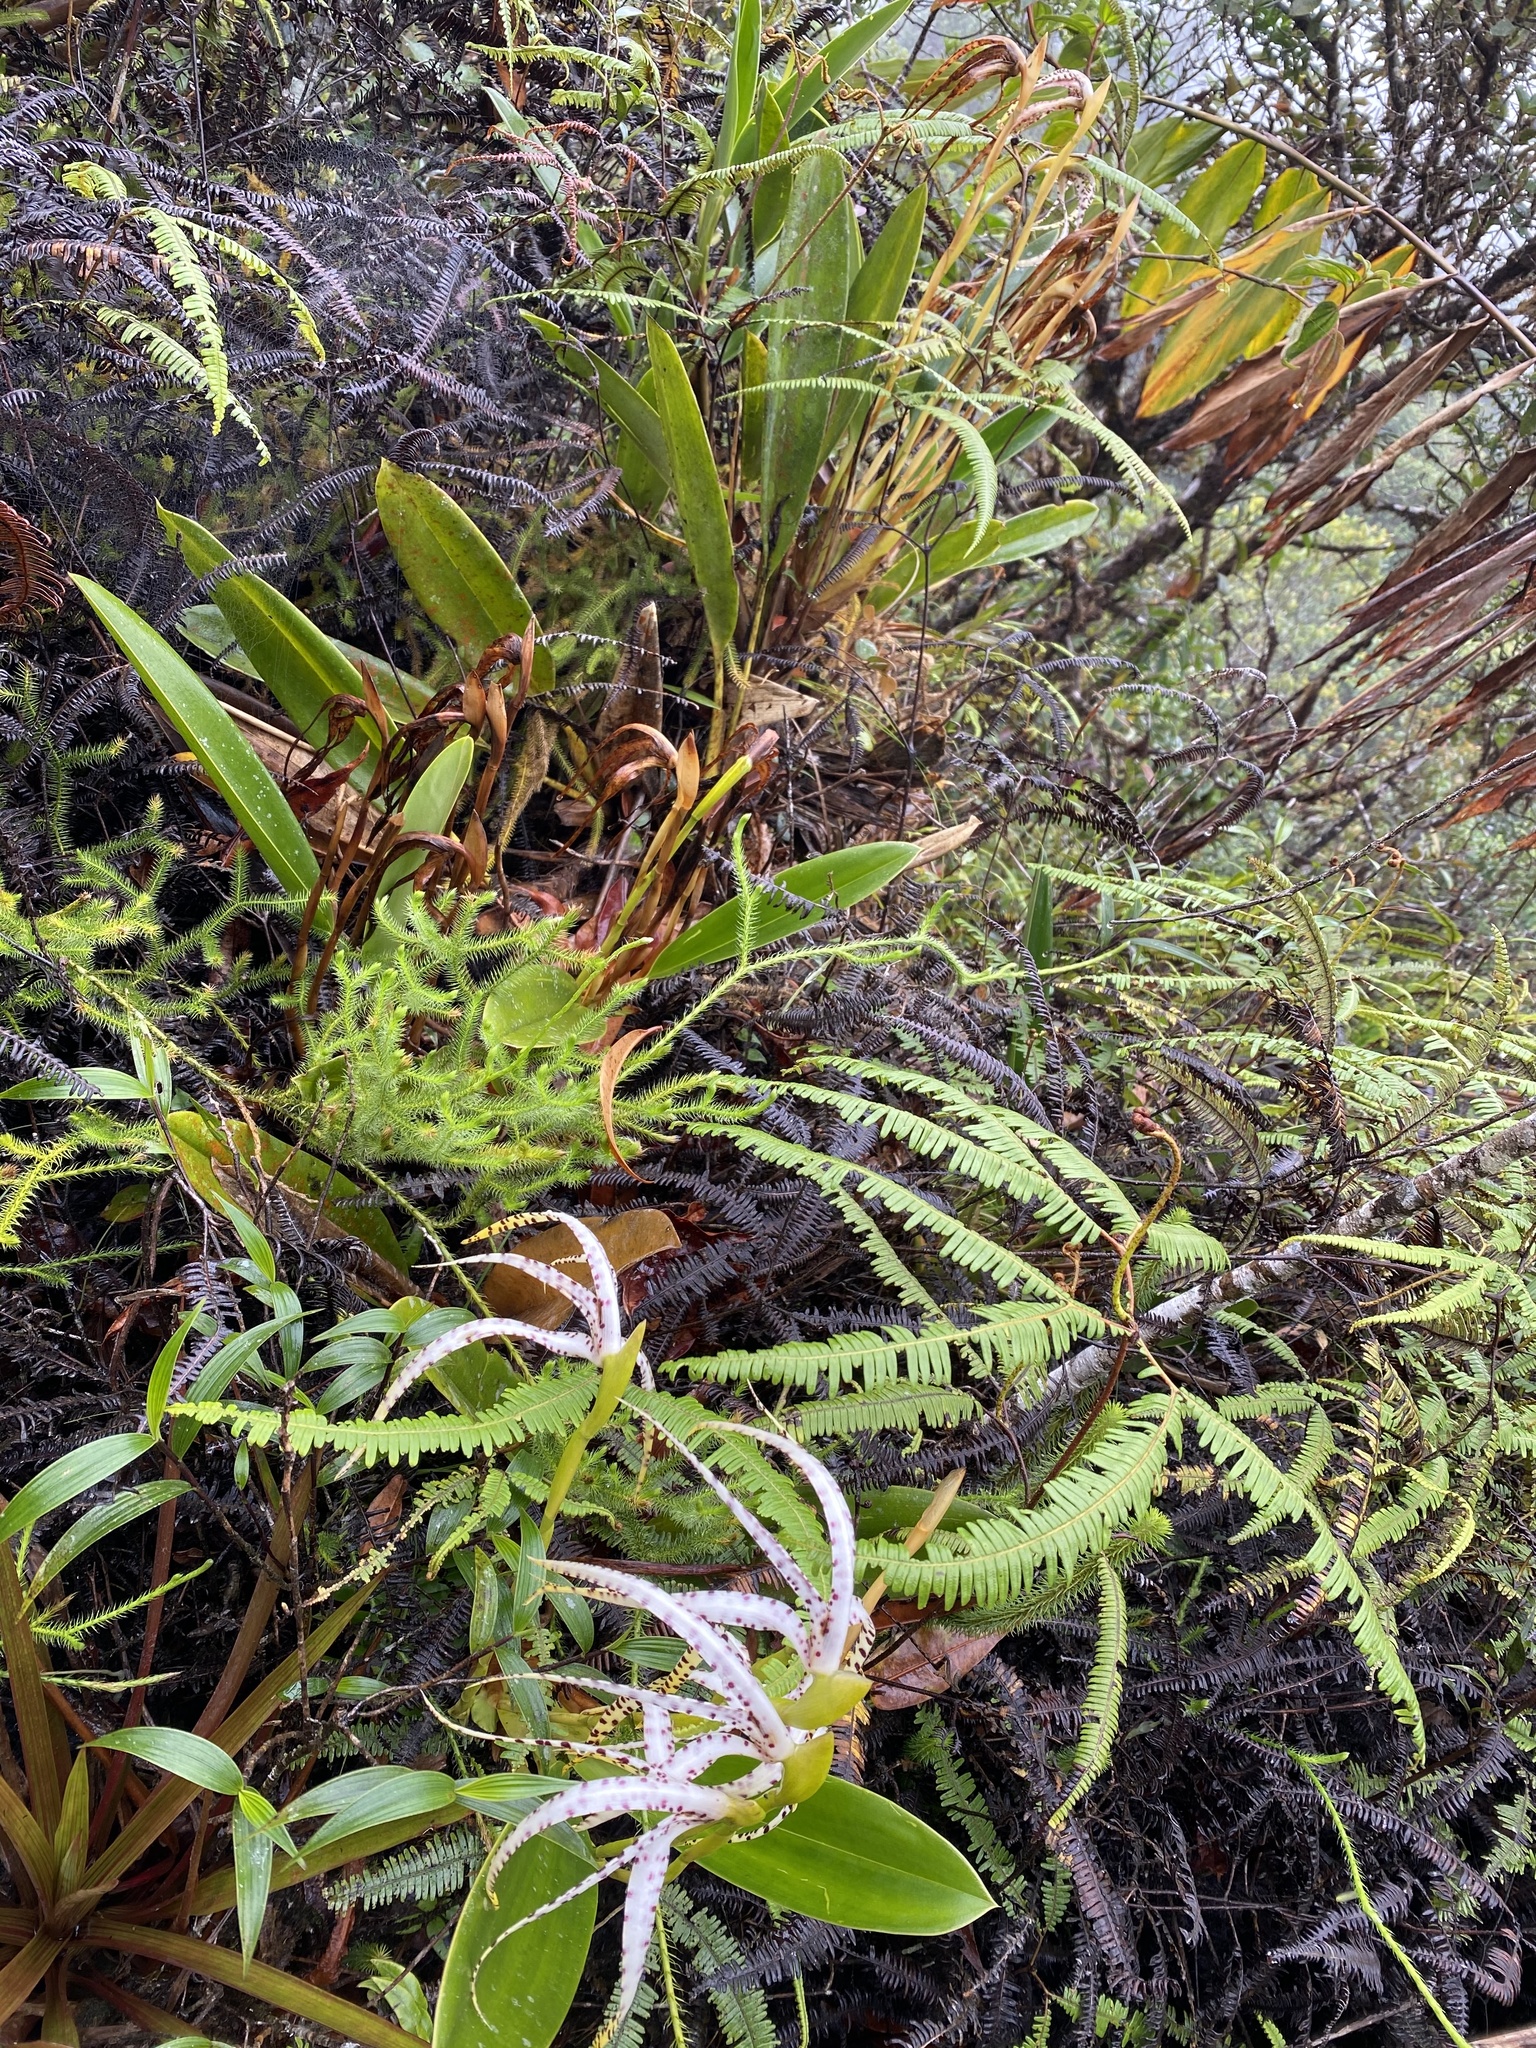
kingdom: Plantae
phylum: Tracheophyta
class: Liliopsida
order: Asparagales
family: Orchidaceae
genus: Maxillaria
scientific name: Maxillaria speciosa
